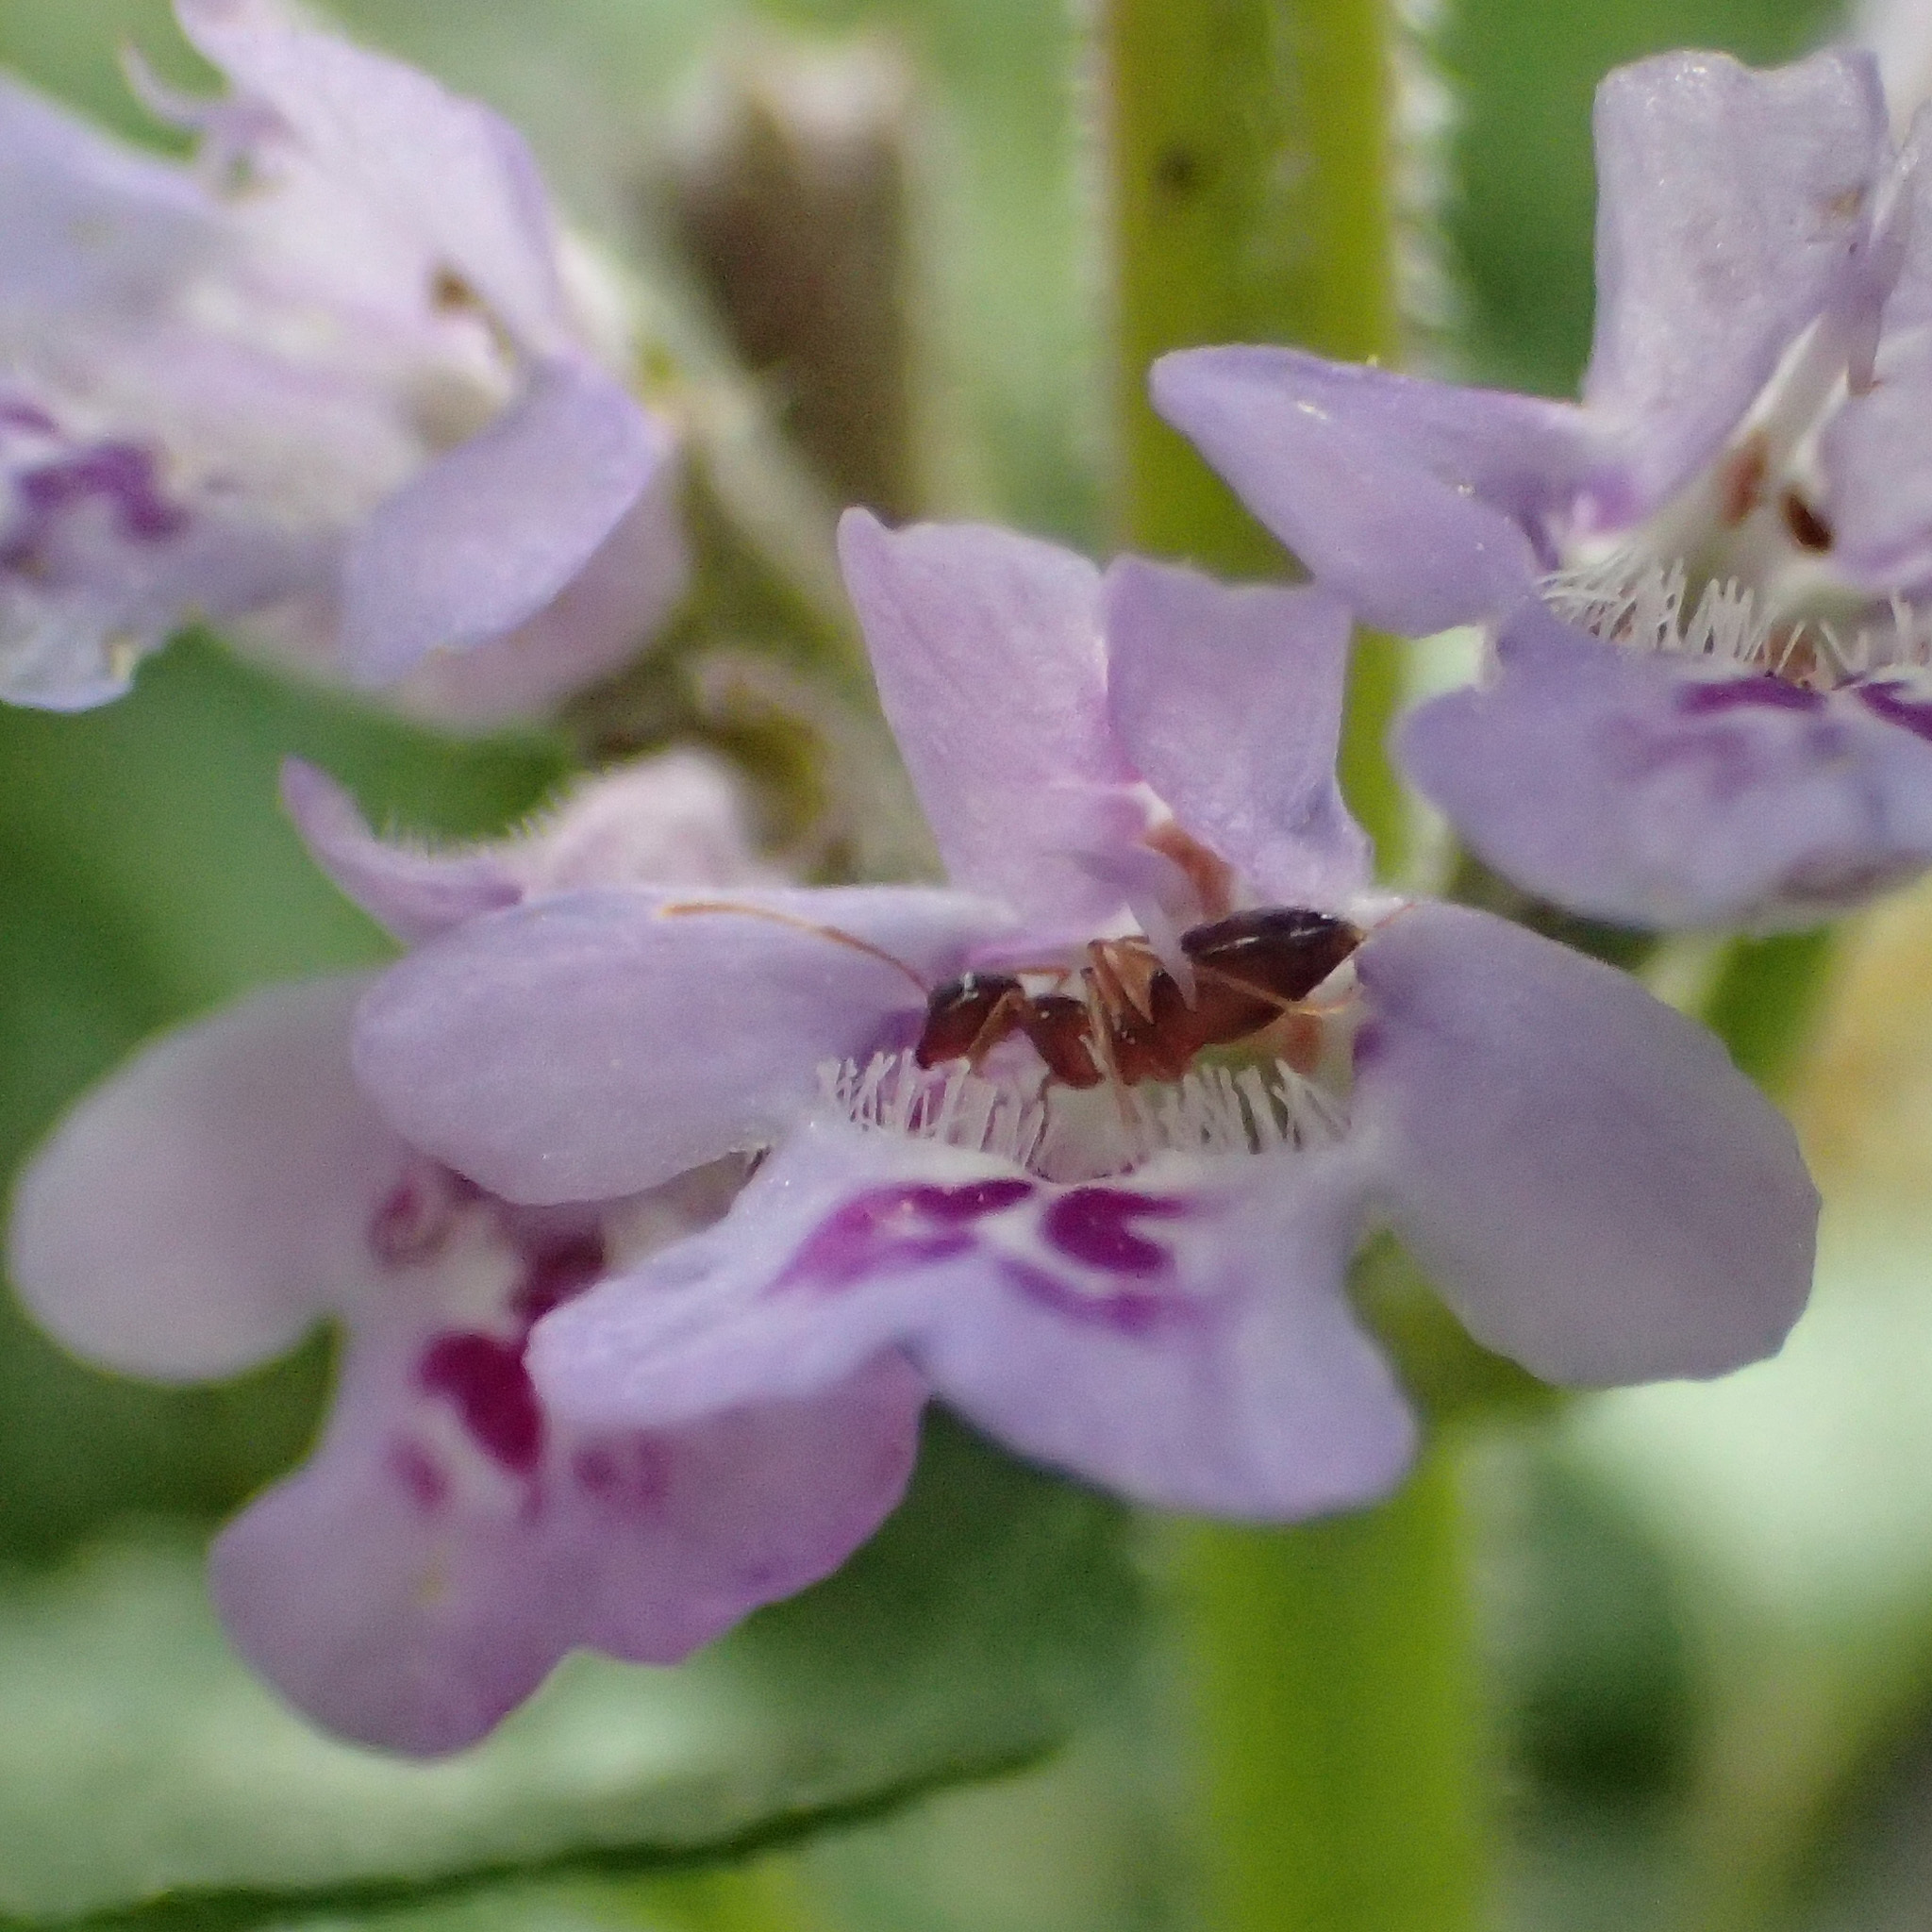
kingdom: Animalia
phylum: Arthropoda
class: Insecta
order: Hymenoptera
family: Formicidae
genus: Prenolepis
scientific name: Prenolepis imparis
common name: Small honey ant
